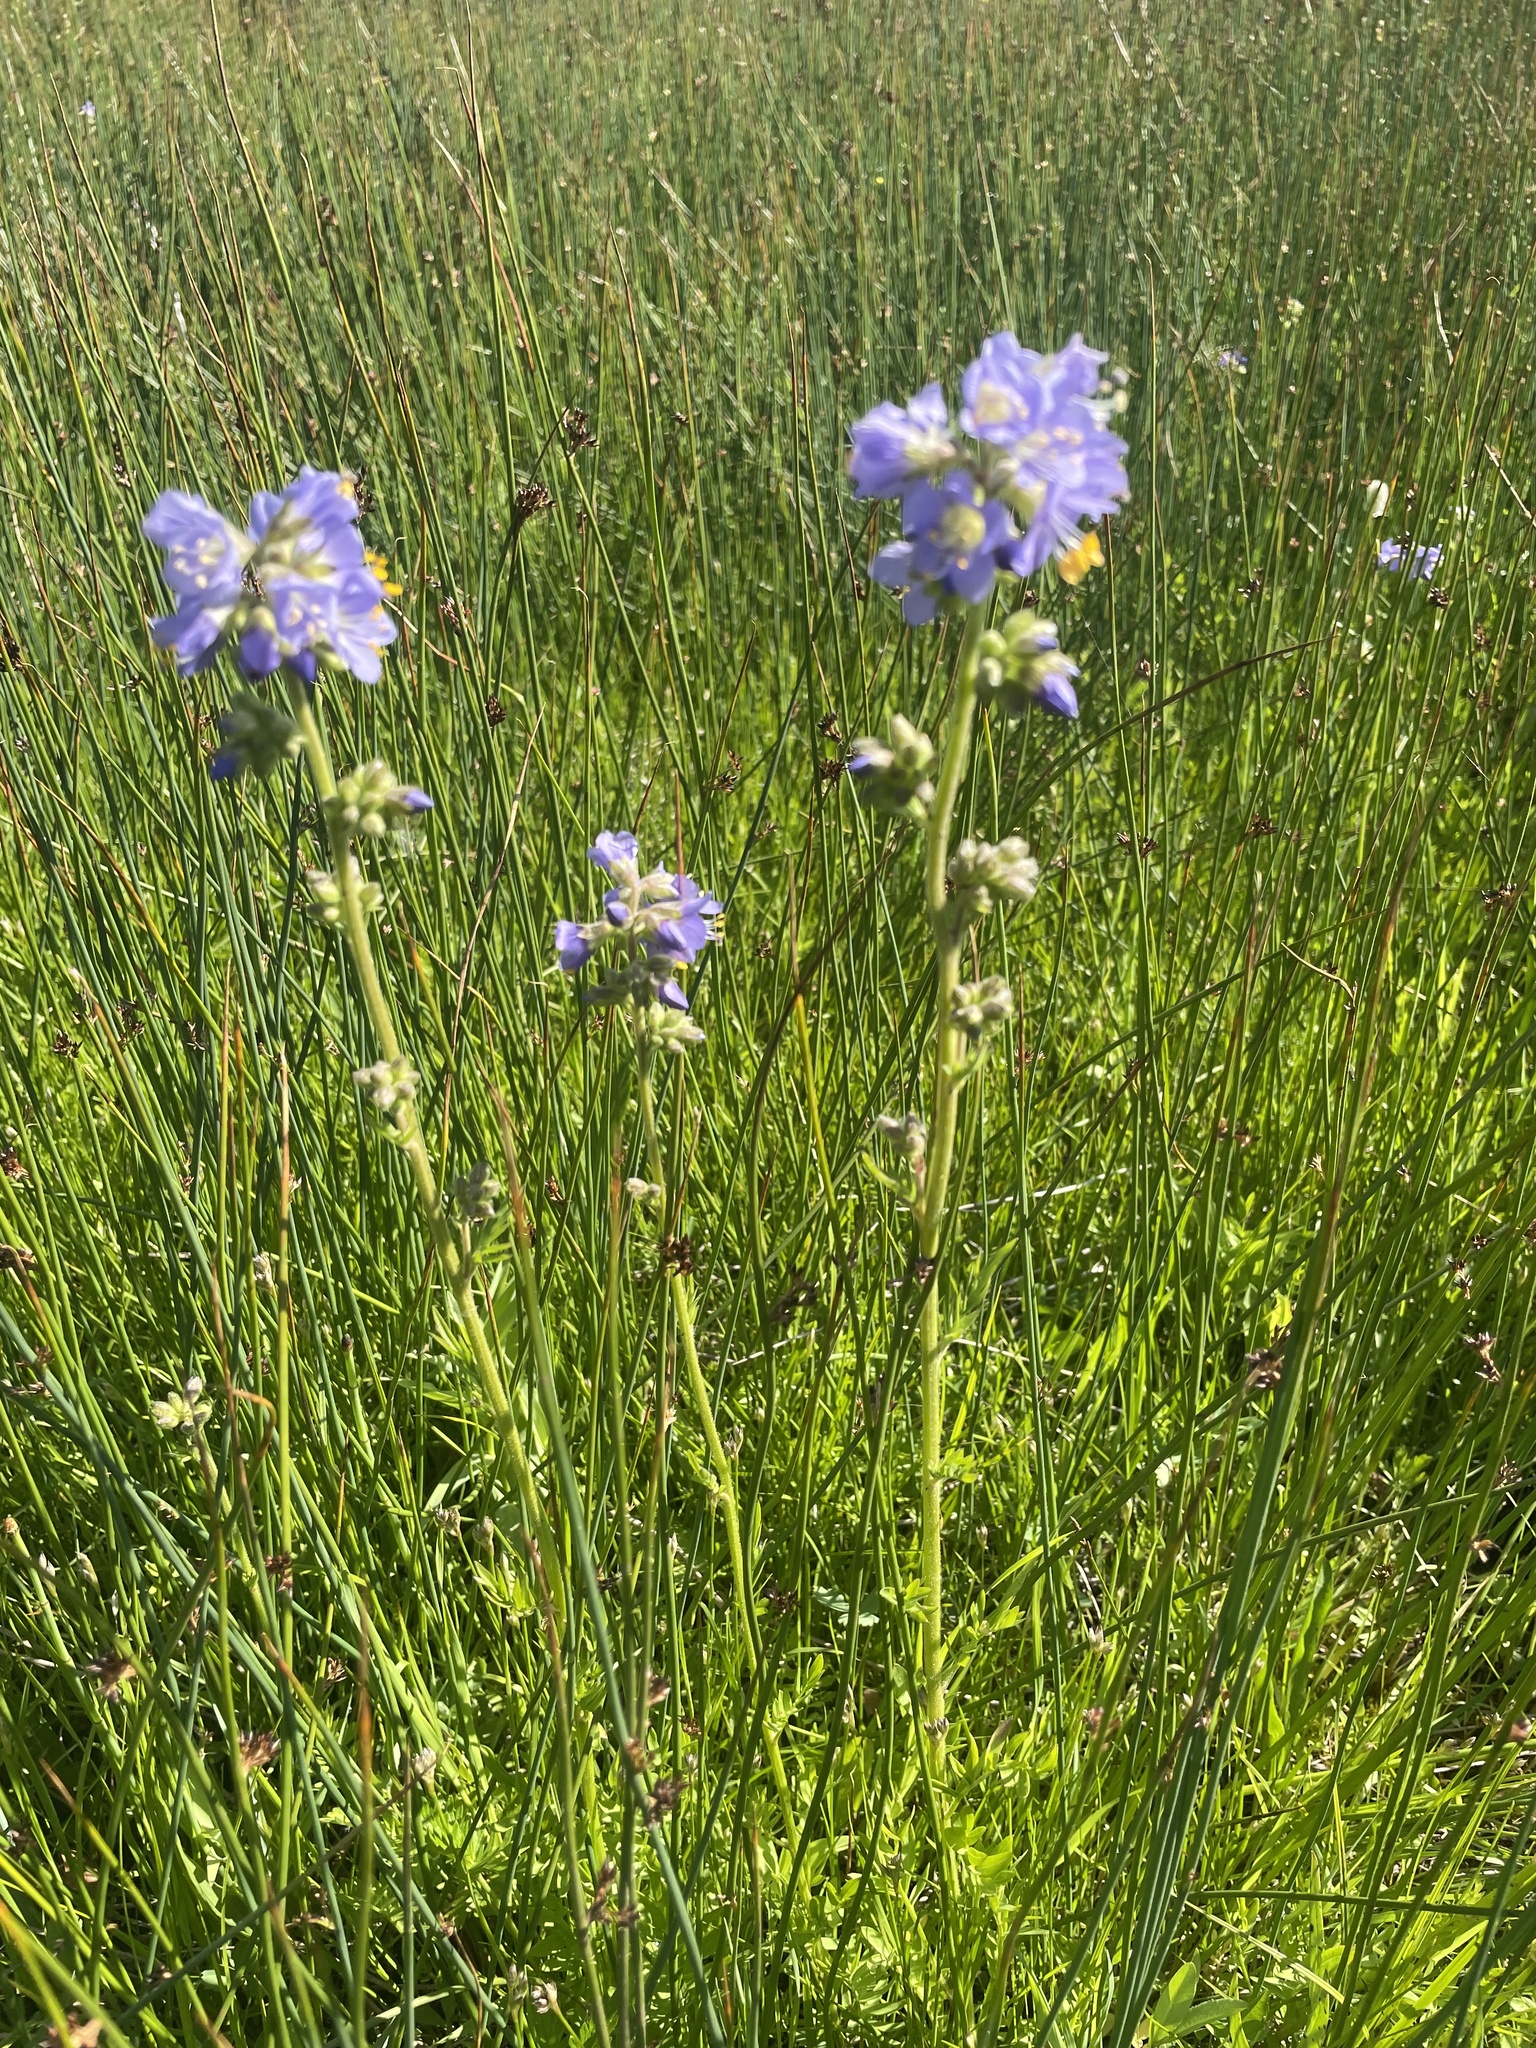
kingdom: Plantae
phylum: Tracheophyta
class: Magnoliopsida
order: Ericales
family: Polemoniaceae
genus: Polemonium
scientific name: Polemonium occidentale
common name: Western jacob's-ladder
